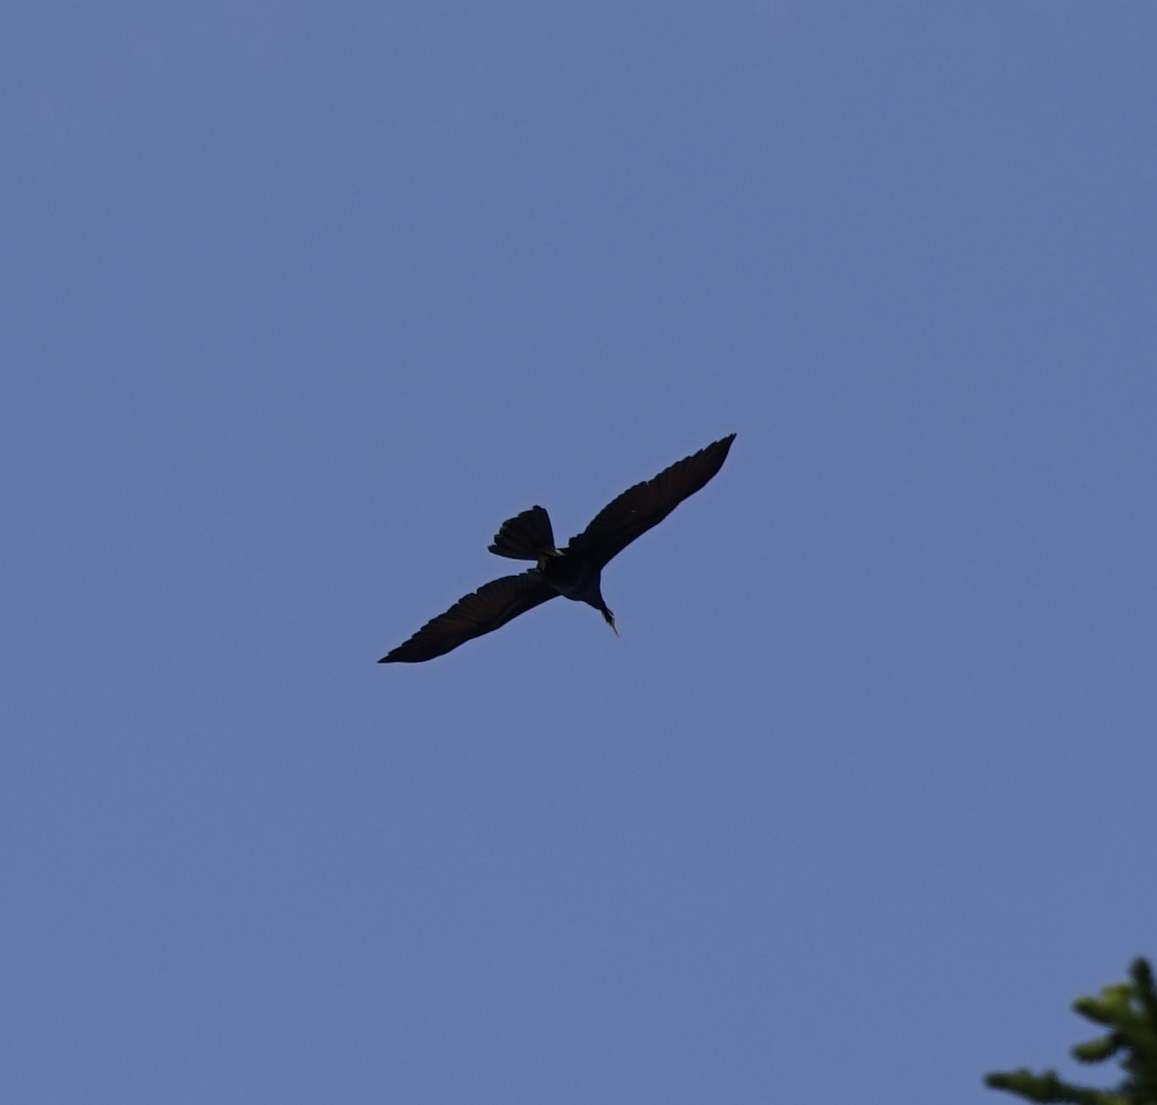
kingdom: Animalia
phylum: Chordata
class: Aves
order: Suliformes
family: Anhingidae
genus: Anhinga
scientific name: Anhinga novaehollandiae
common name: Australasian darter
